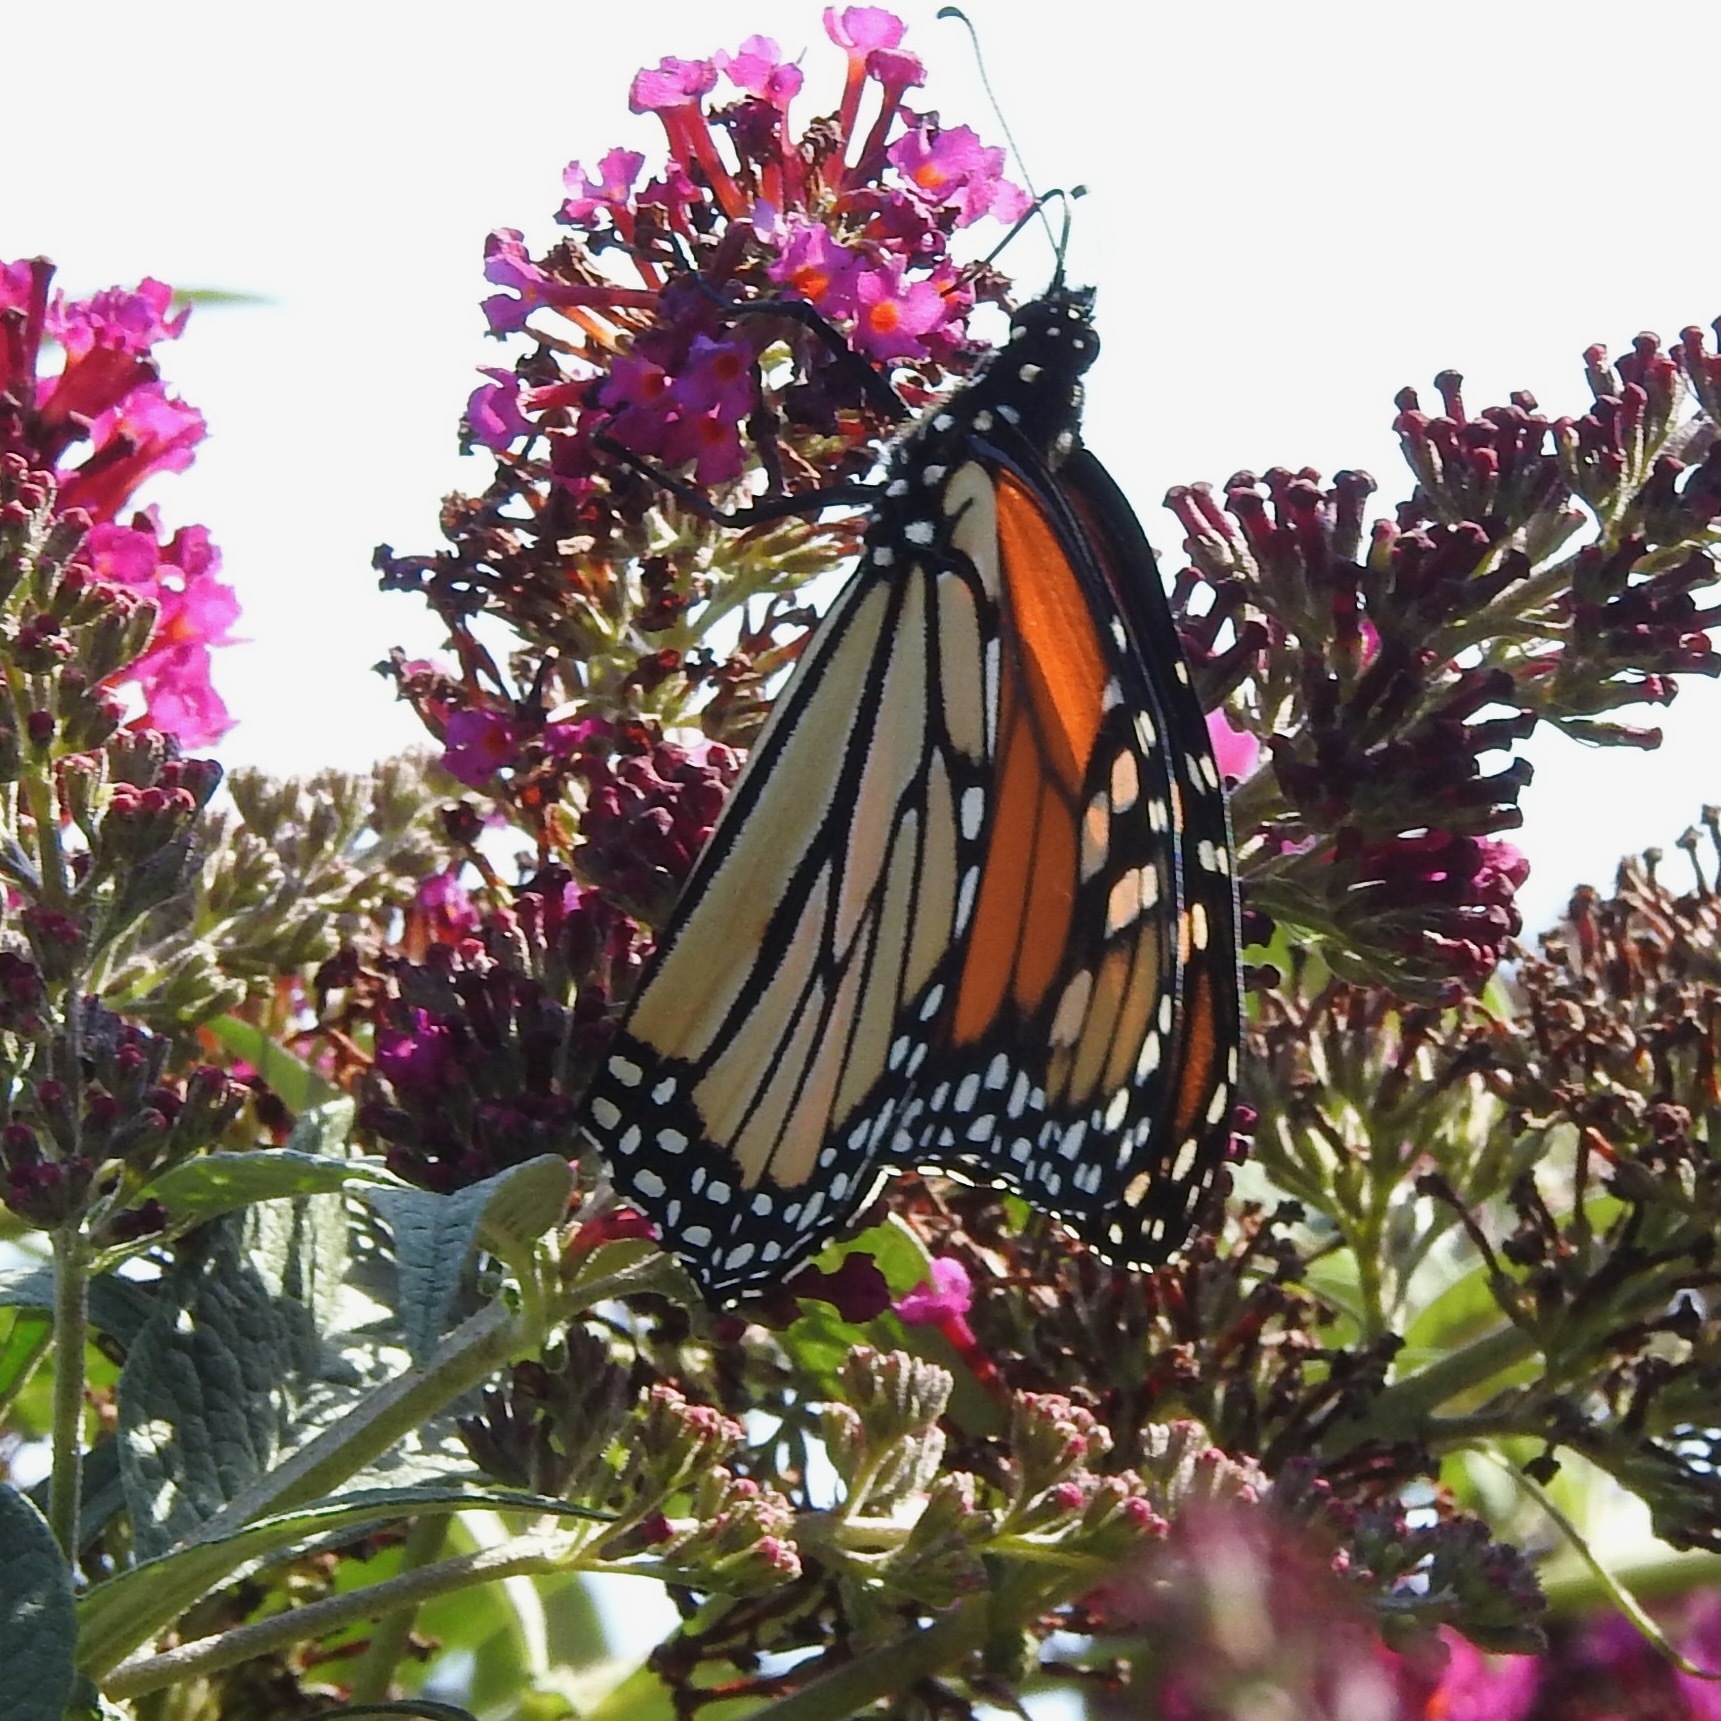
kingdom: Animalia
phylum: Arthropoda
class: Insecta
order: Lepidoptera
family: Nymphalidae
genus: Danaus
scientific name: Danaus plexippus
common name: Monarch
